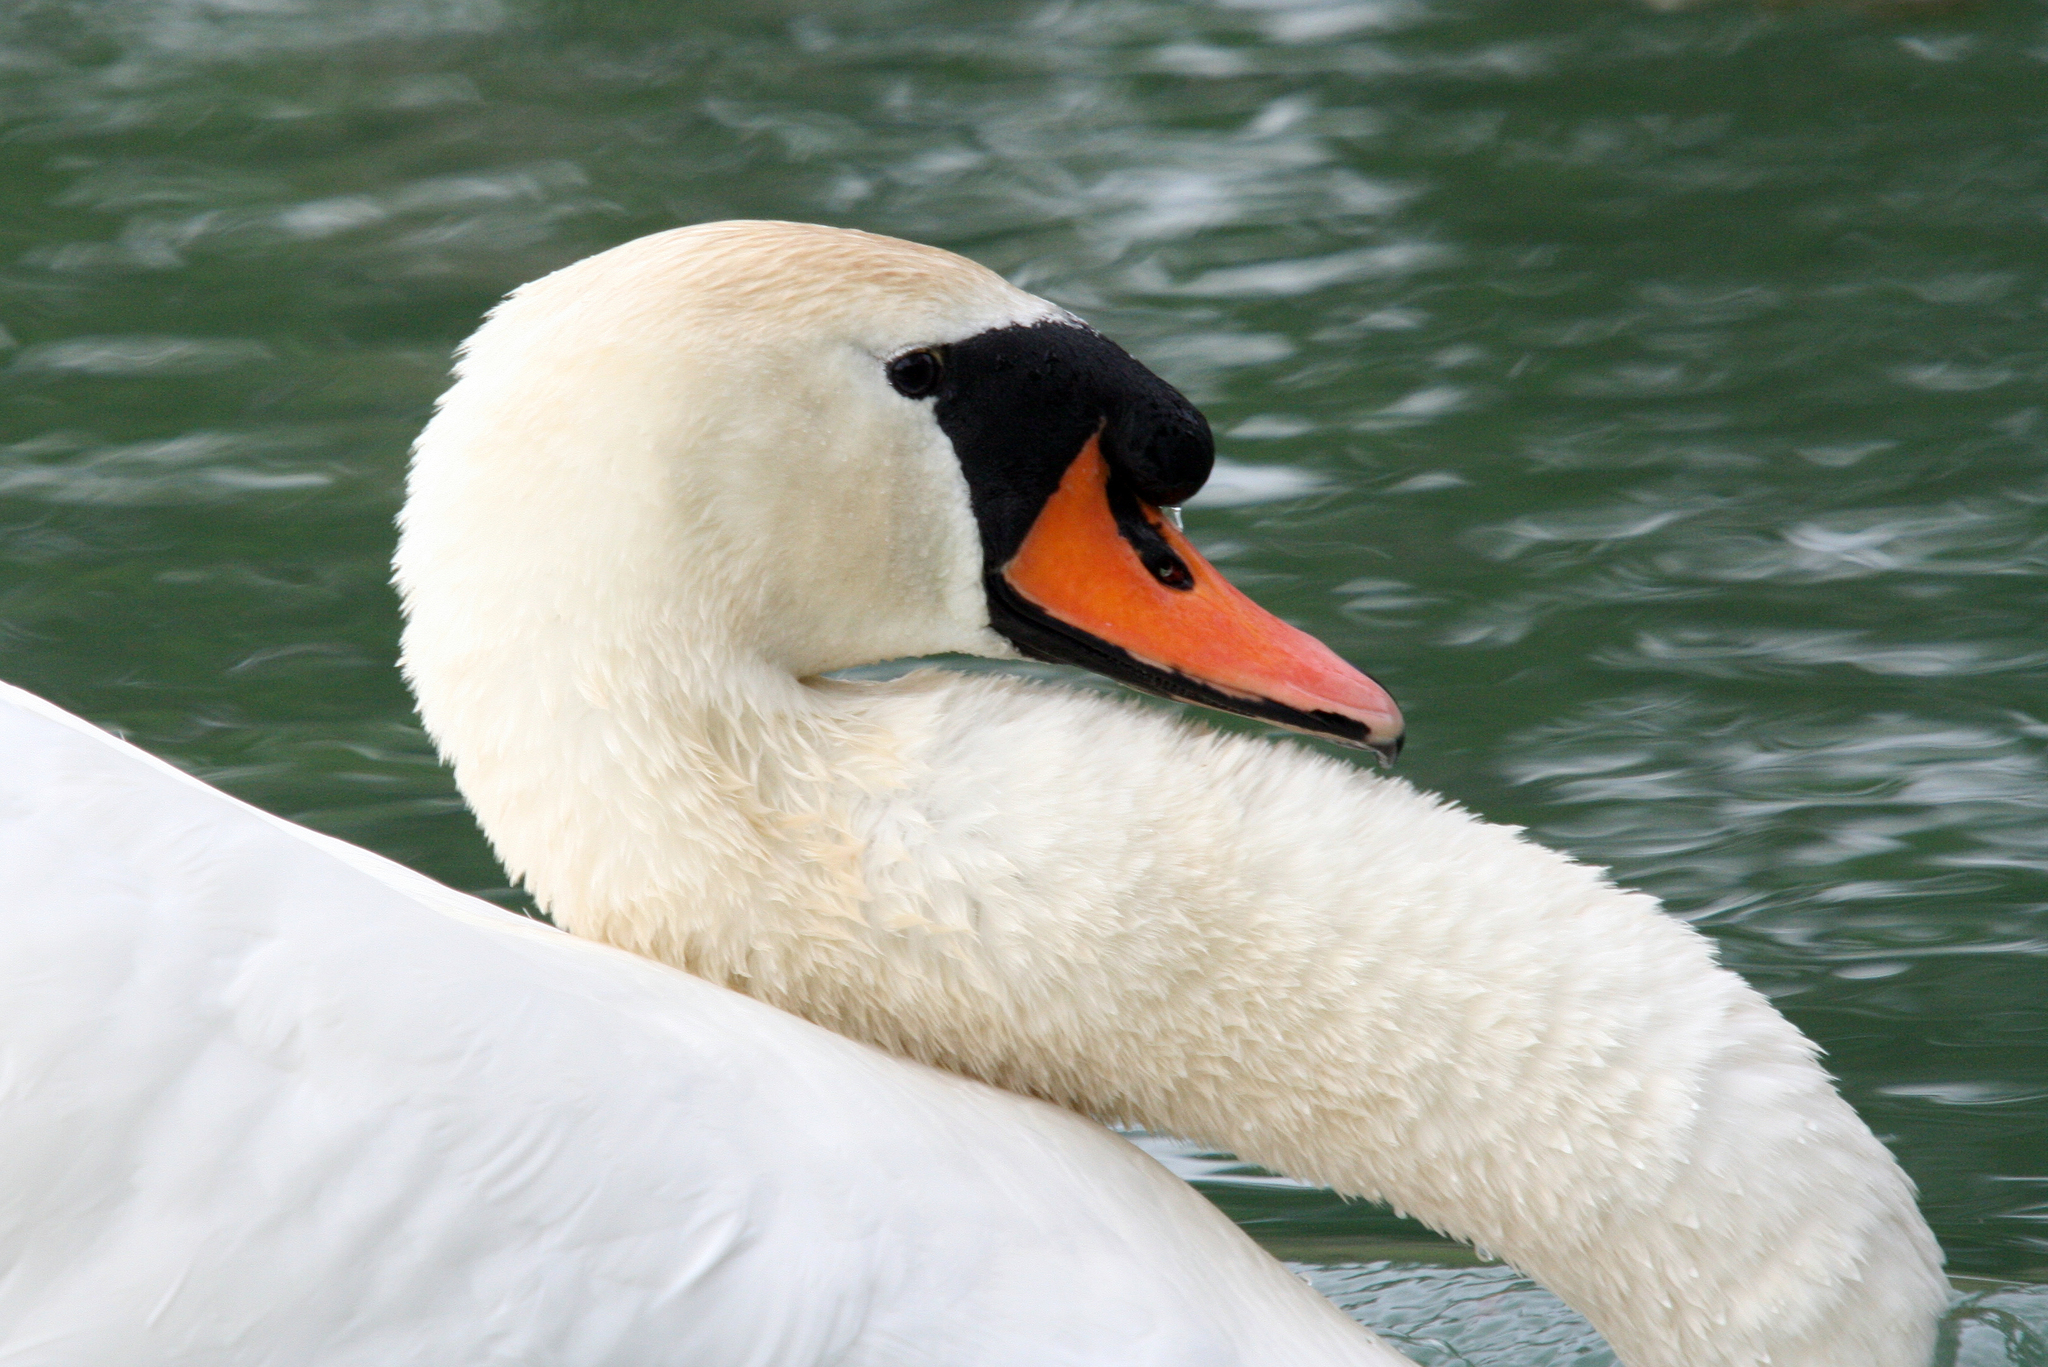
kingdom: Animalia
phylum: Chordata
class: Aves
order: Anseriformes
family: Anatidae
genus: Cygnus
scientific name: Cygnus olor
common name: Mute swan
